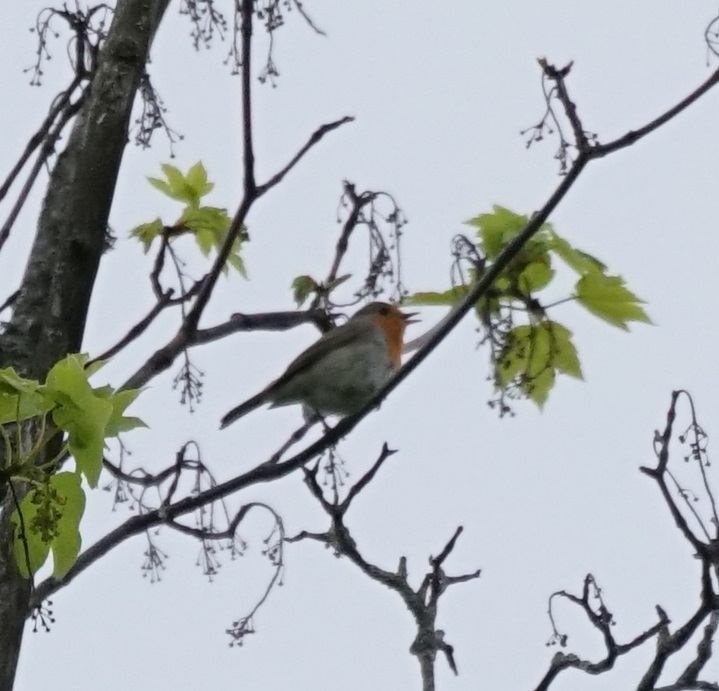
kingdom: Animalia
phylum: Chordata
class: Aves
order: Passeriformes
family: Muscicapidae
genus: Erithacus
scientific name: Erithacus rubecula
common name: European robin
